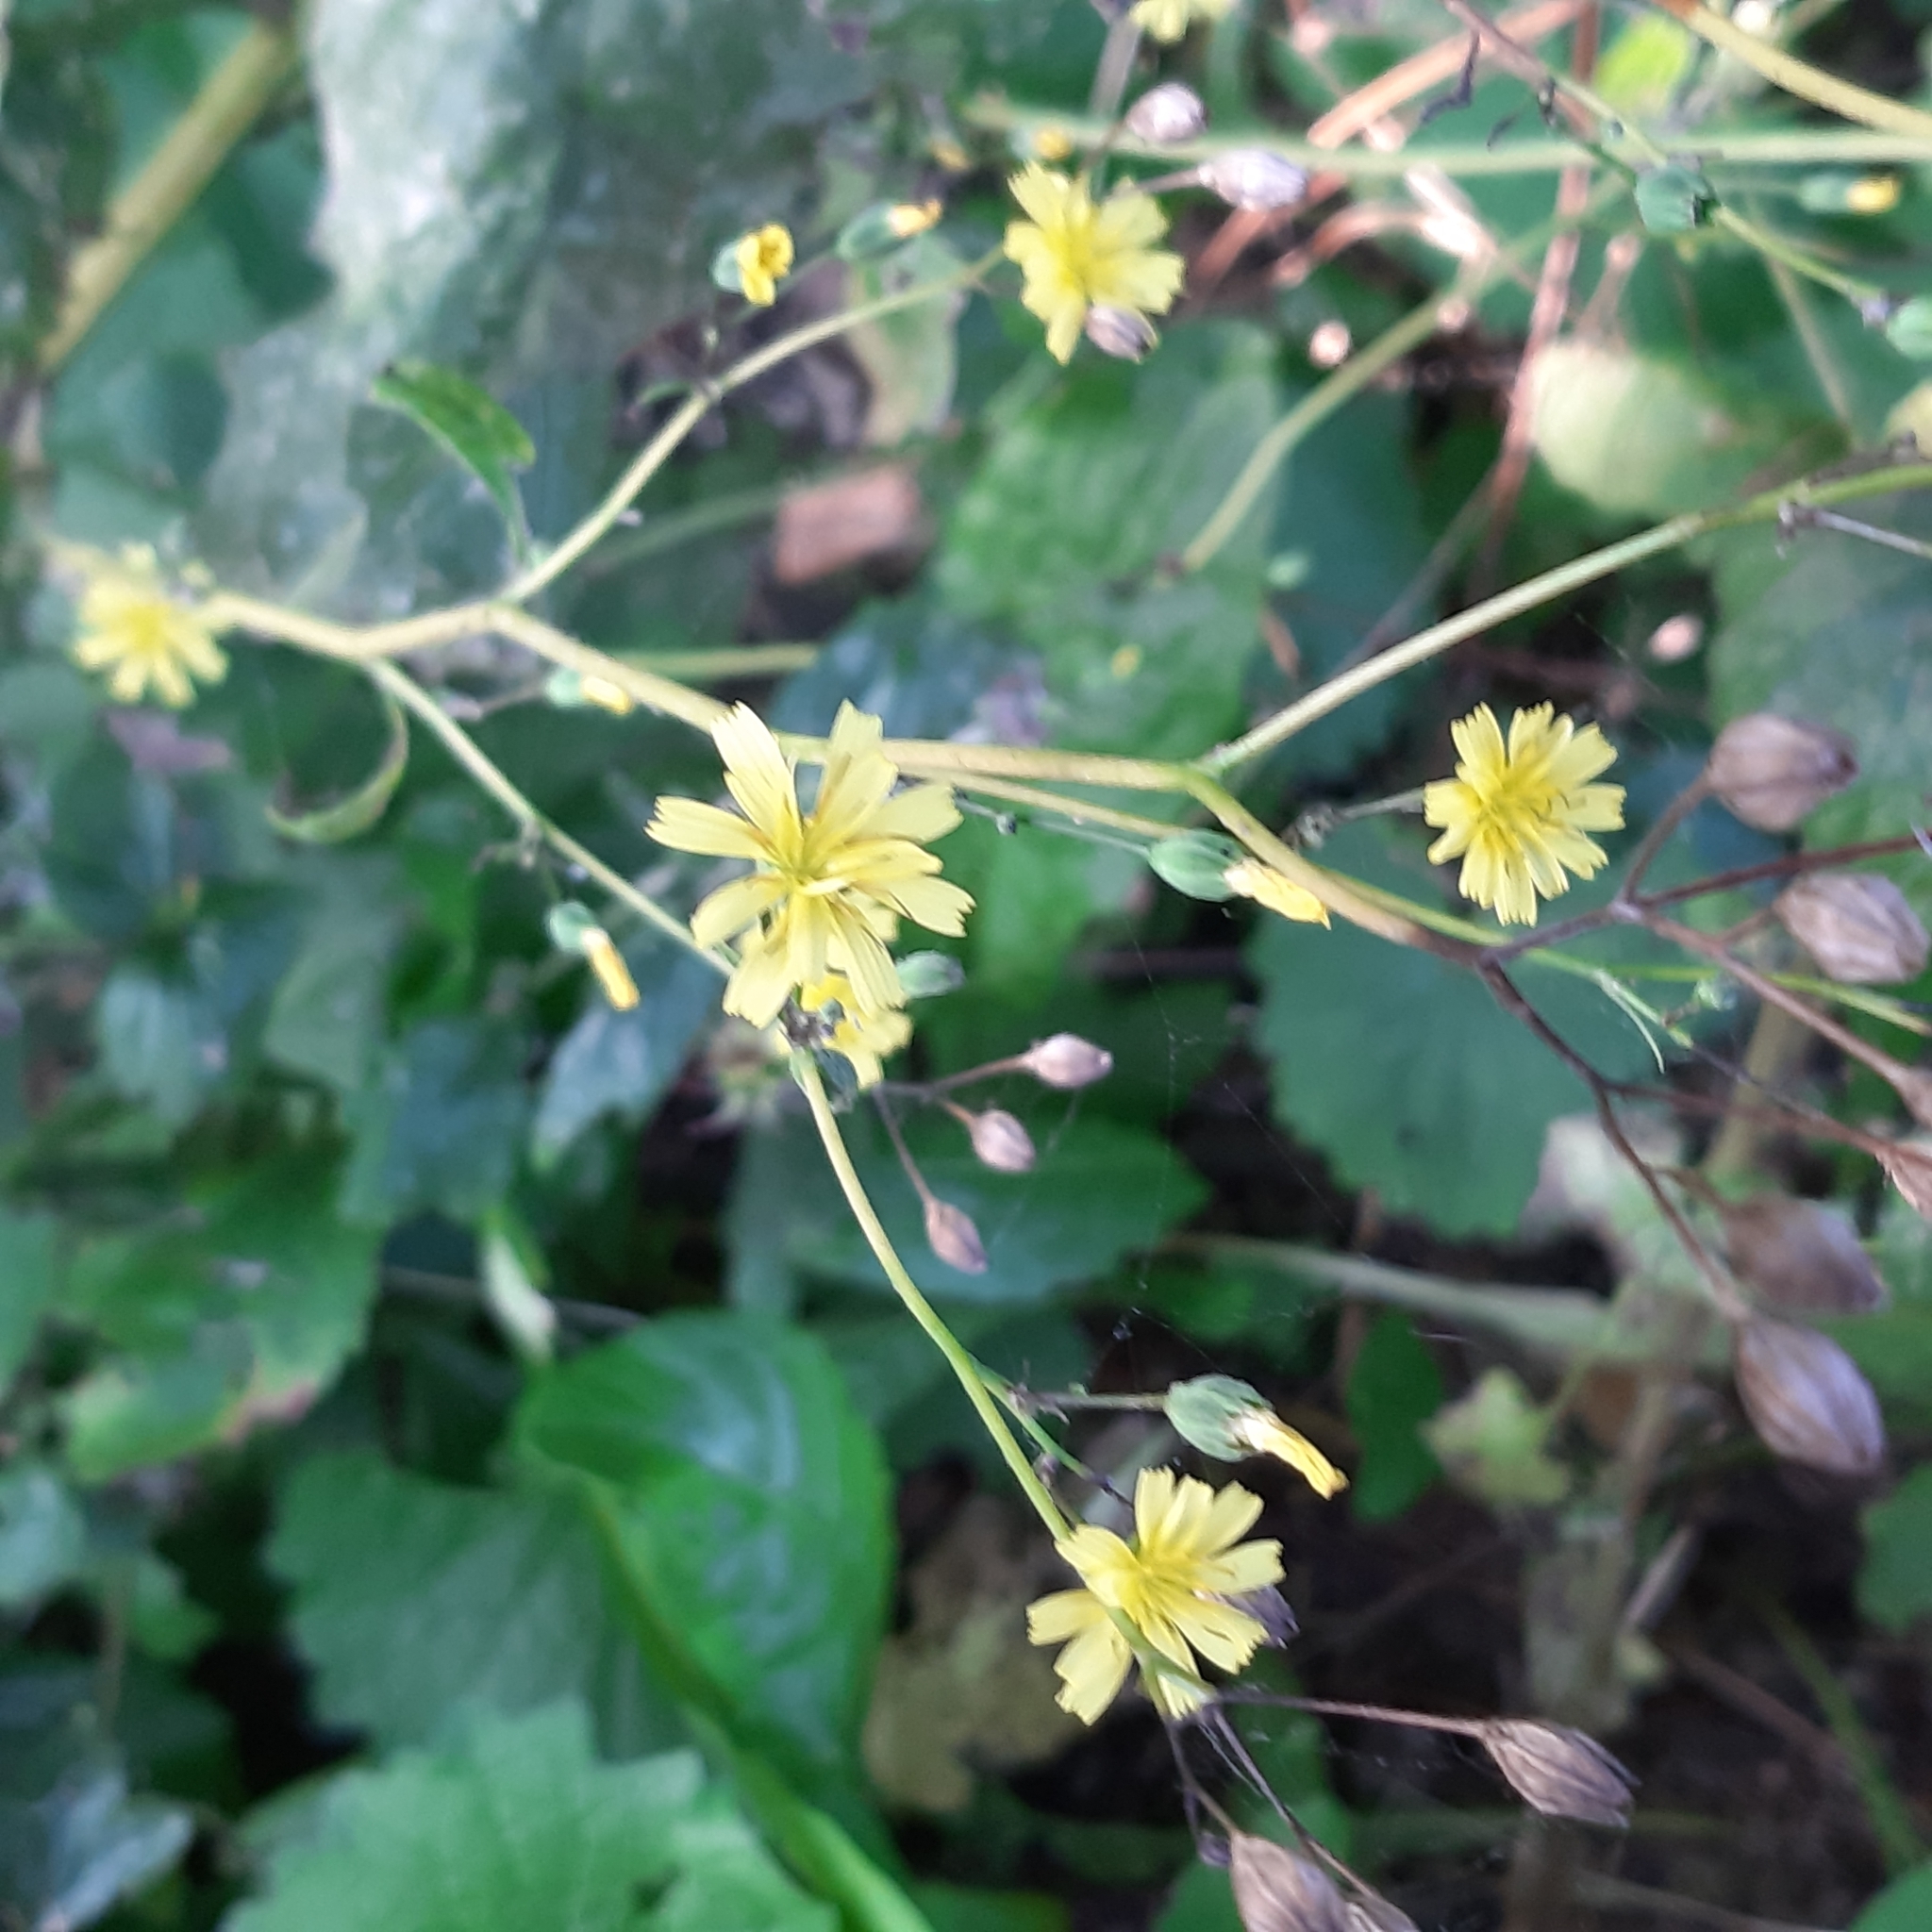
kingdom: Plantae
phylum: Tracheophyta
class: Magnoliopsida
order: Asterales
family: Asteraceae
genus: Lapsana
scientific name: Lapsana communis
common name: Nipplewort
